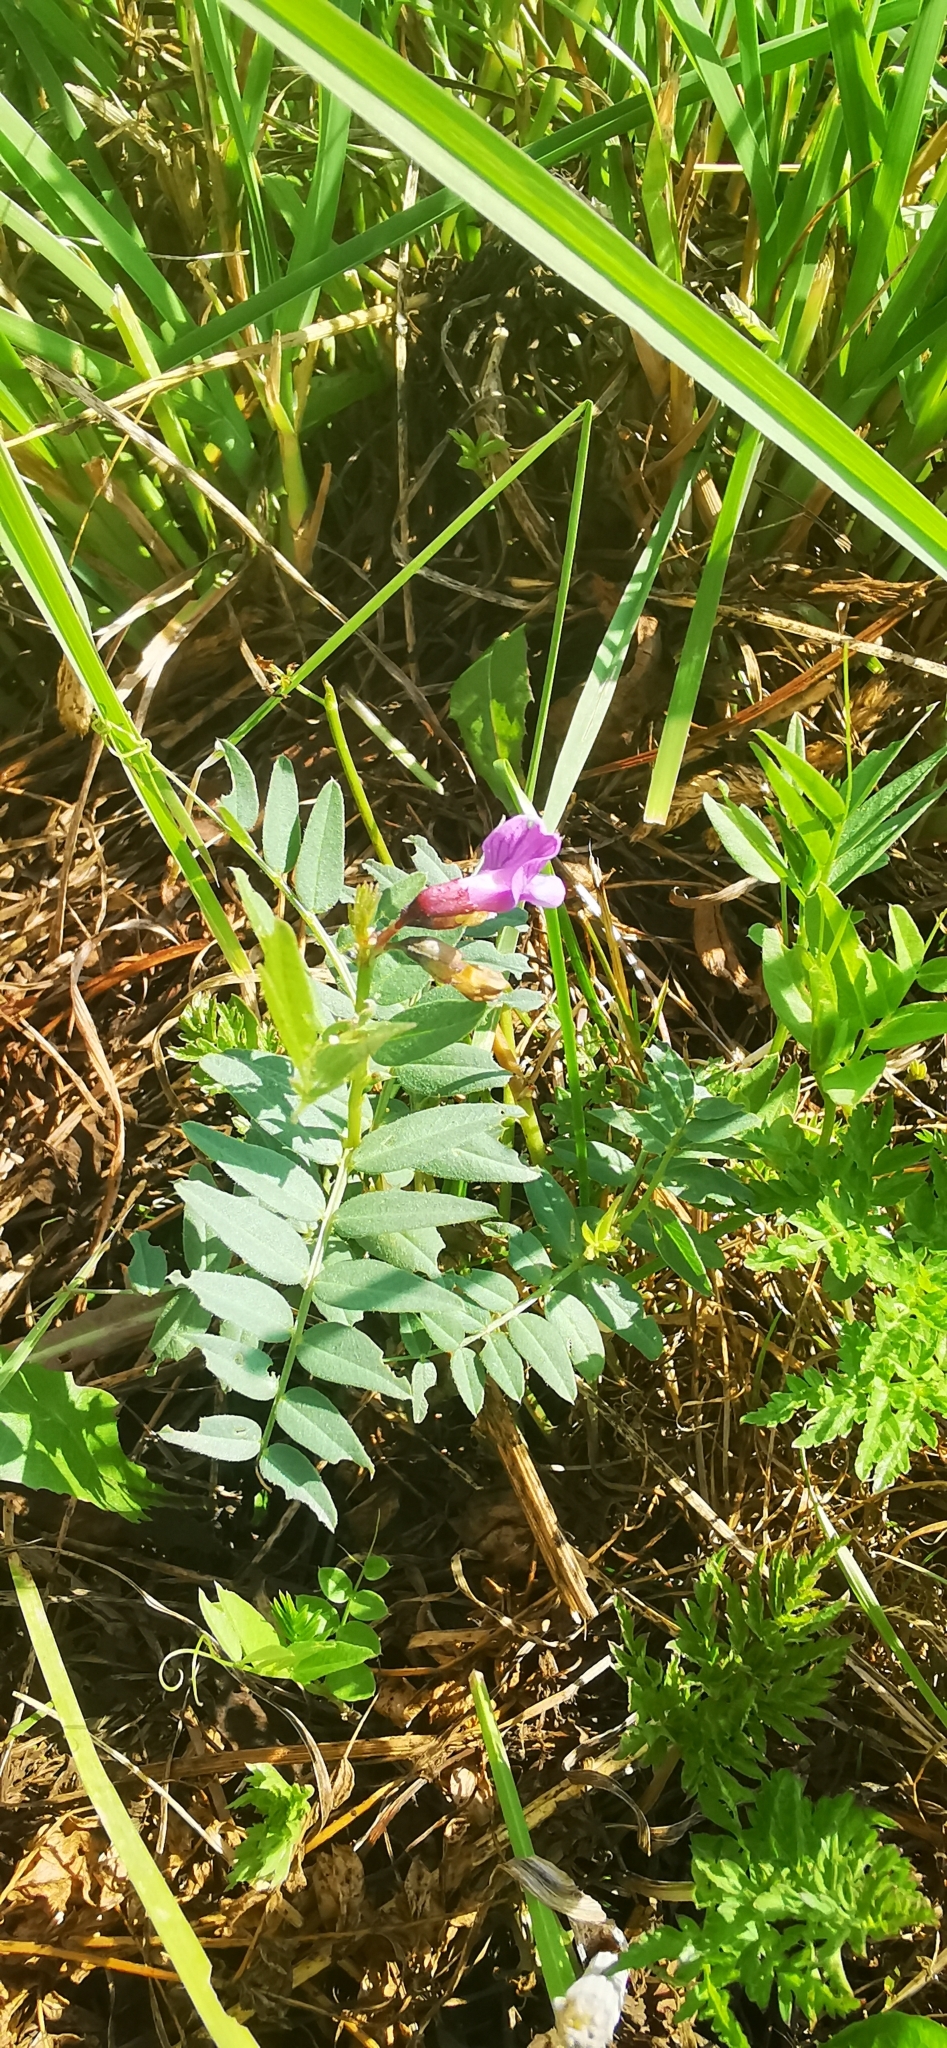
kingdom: Plantae
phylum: Tracheophyta
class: Magnoliopsida
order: Fabales
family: Fabaceae
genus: Vicia
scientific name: Vicia sepium
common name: Bush vetch
